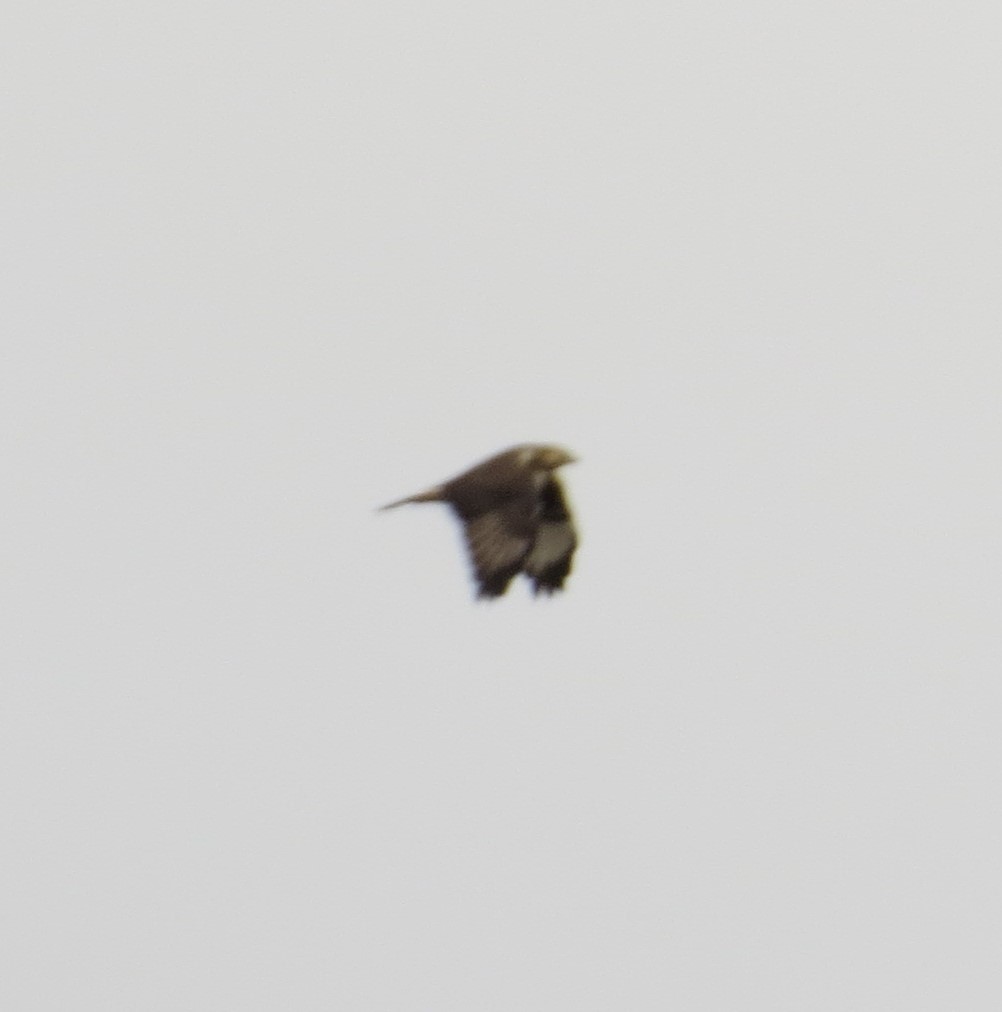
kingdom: Animalia
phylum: Chordata
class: Aves
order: Accipitriformes
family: Accipitridae
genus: Buteo
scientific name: Buteo lagopus
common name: Rough-legged buzzard
